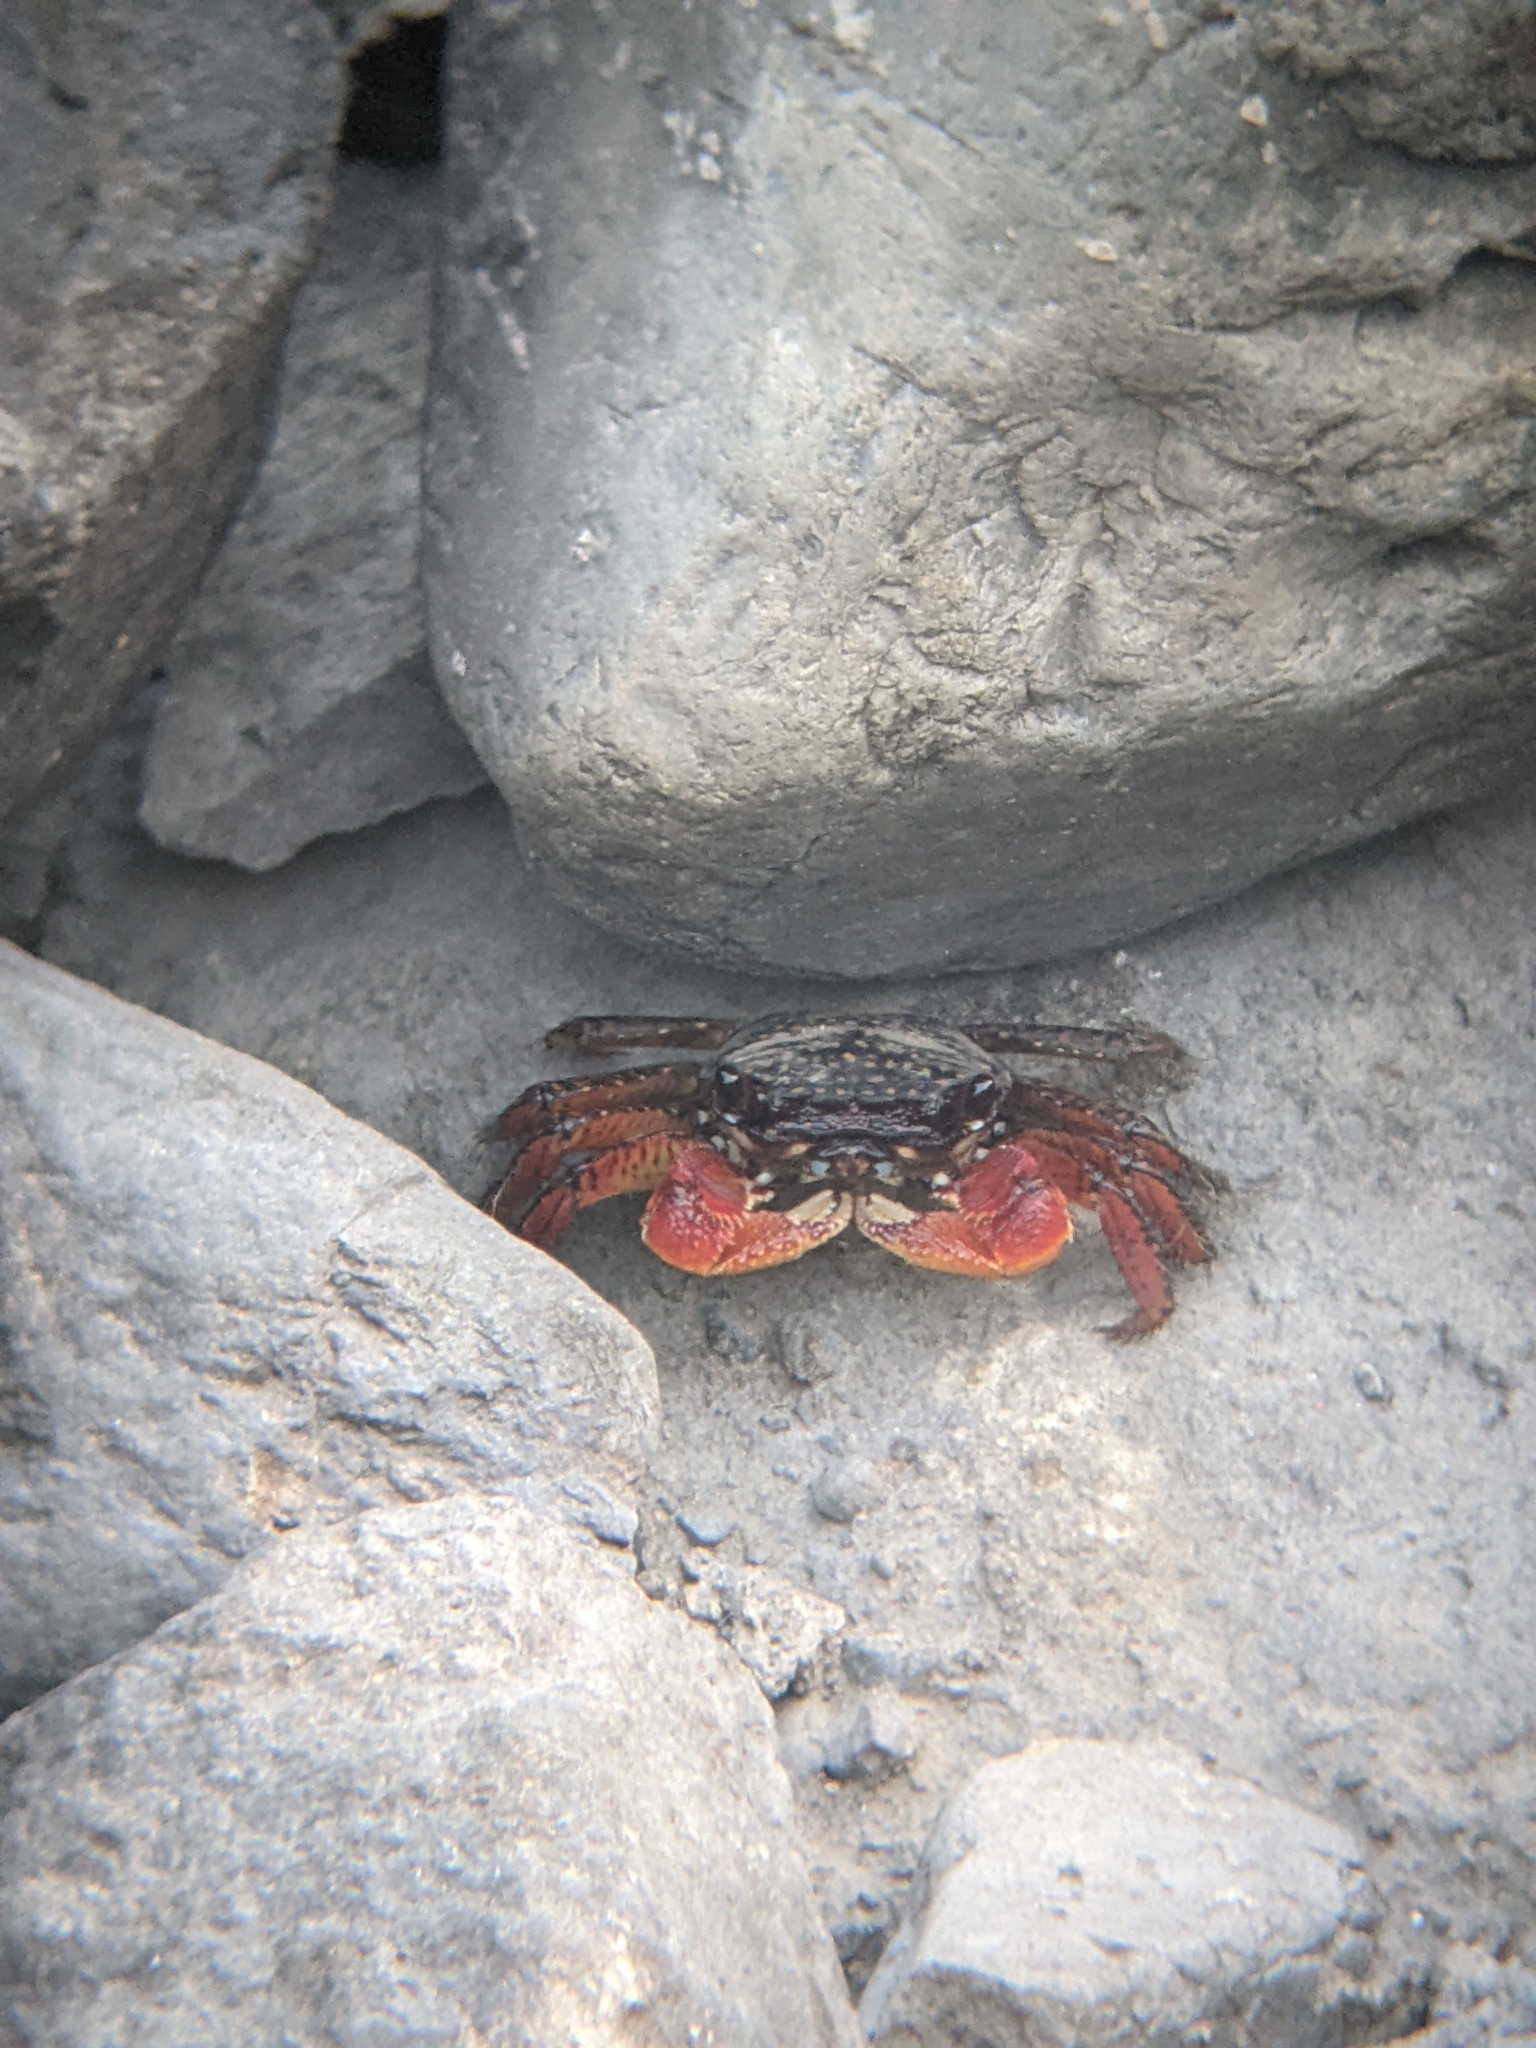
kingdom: Animalia
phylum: Arthropoda
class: Malacostraca
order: Decapoda
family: Grapsidae
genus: Goniopsis
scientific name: Goniopsis pulchra
